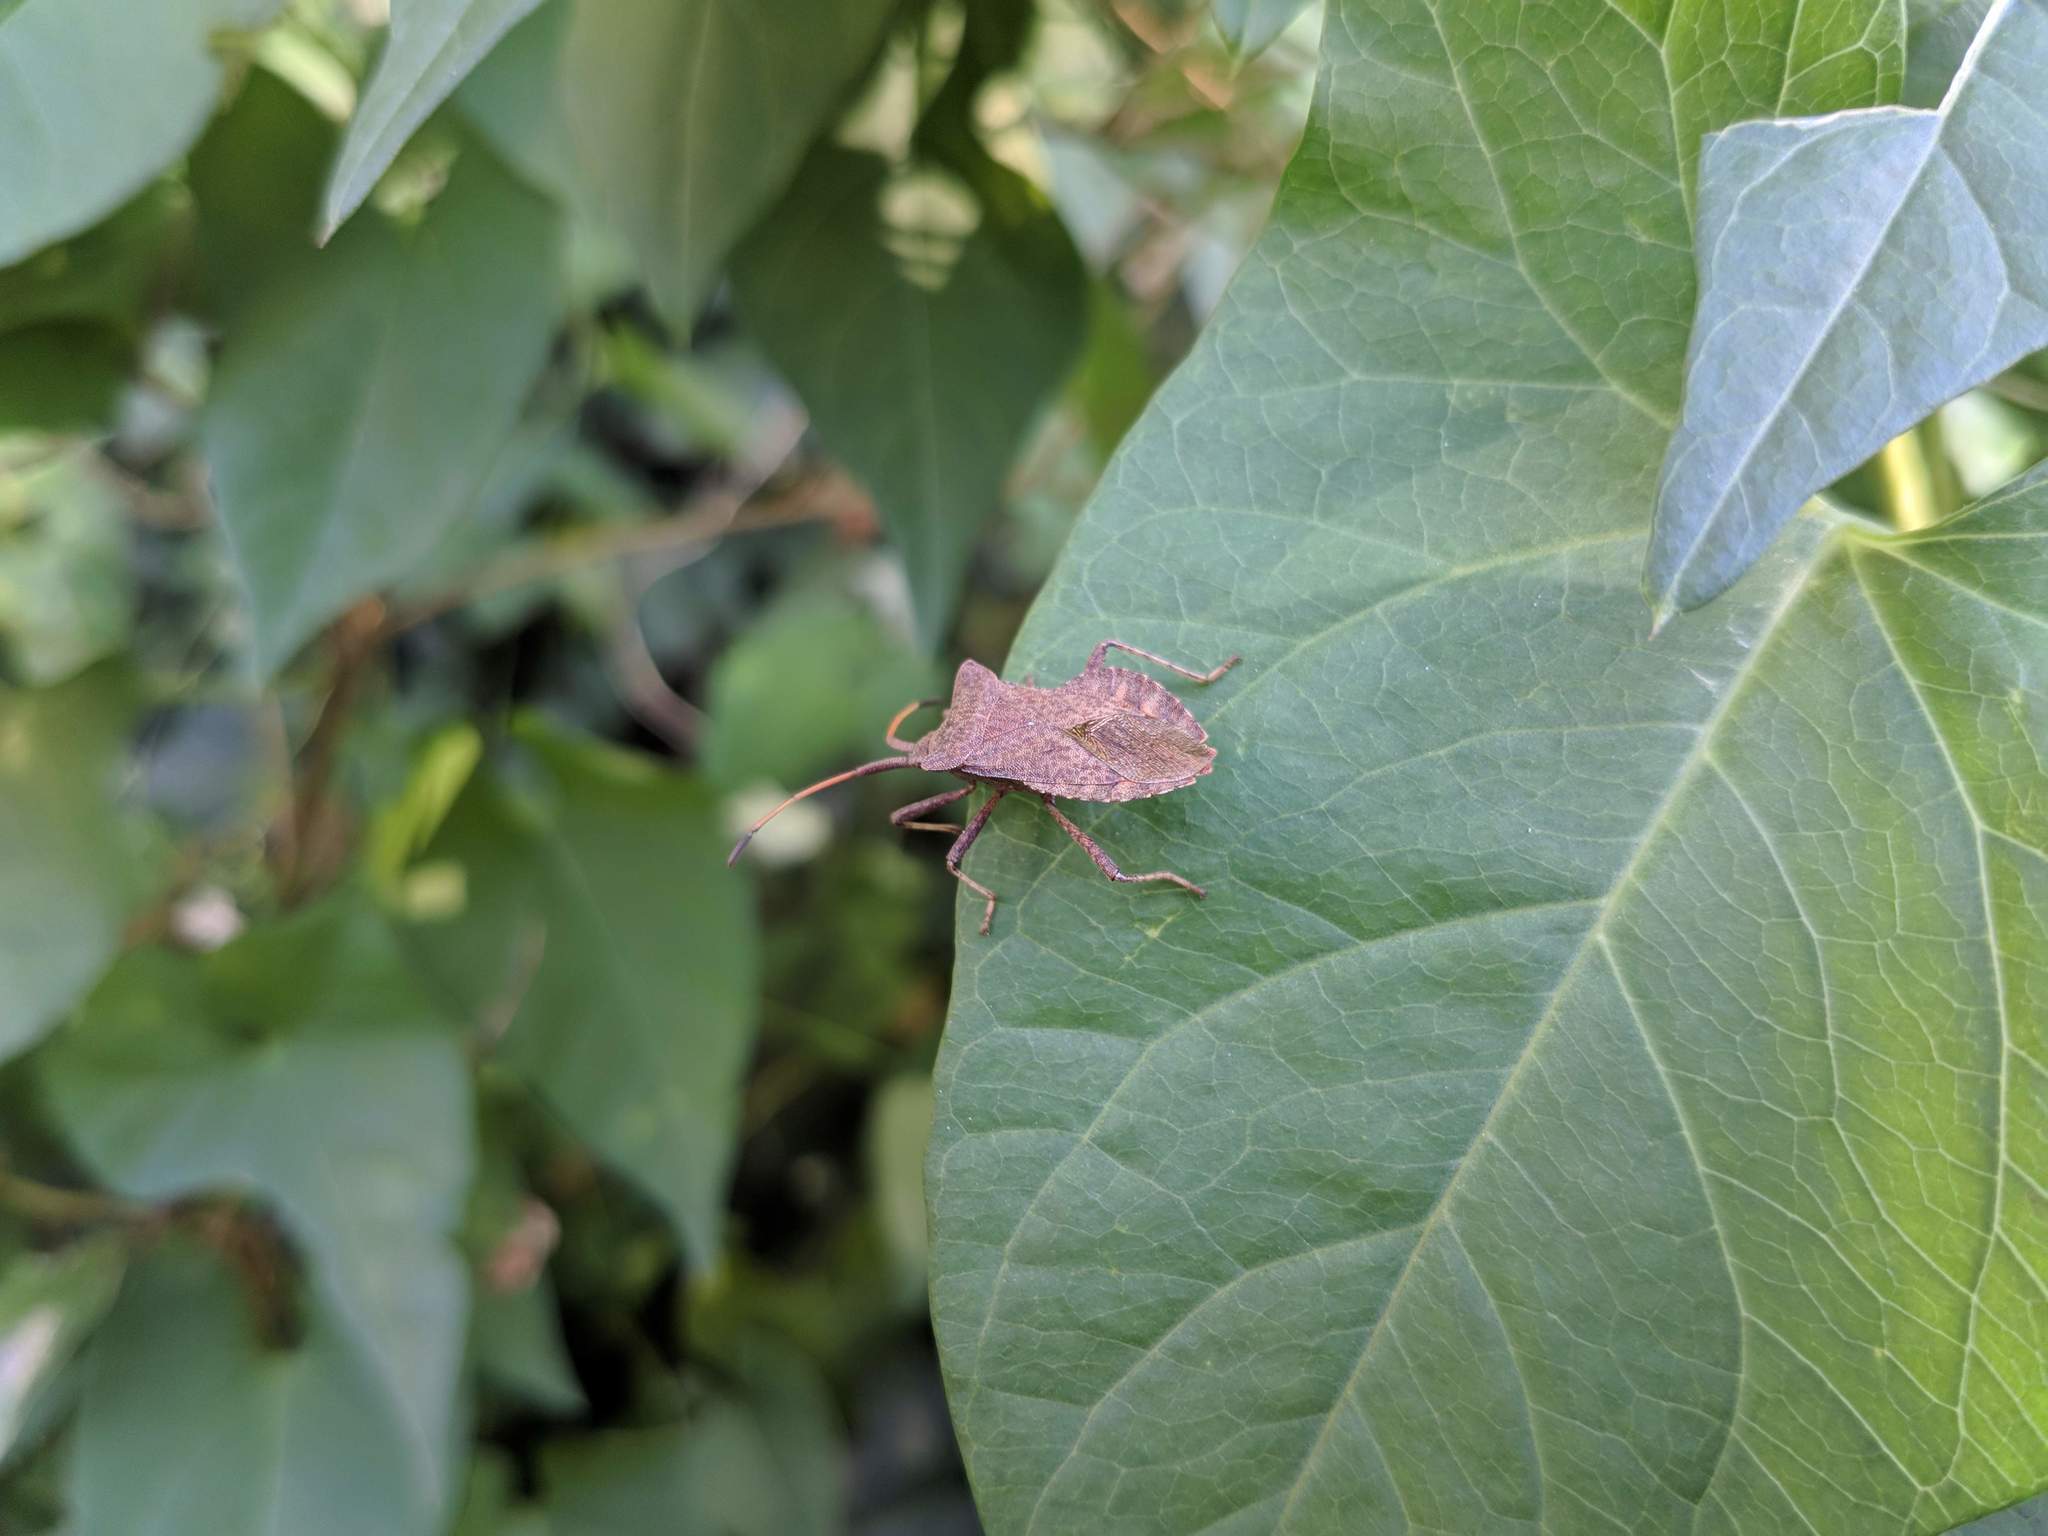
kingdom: Animalia
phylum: Arthropoda
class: Insecta
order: Hemiptera
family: Coreidae
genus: Coreus
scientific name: Coreus marginatus
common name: Dock bug
